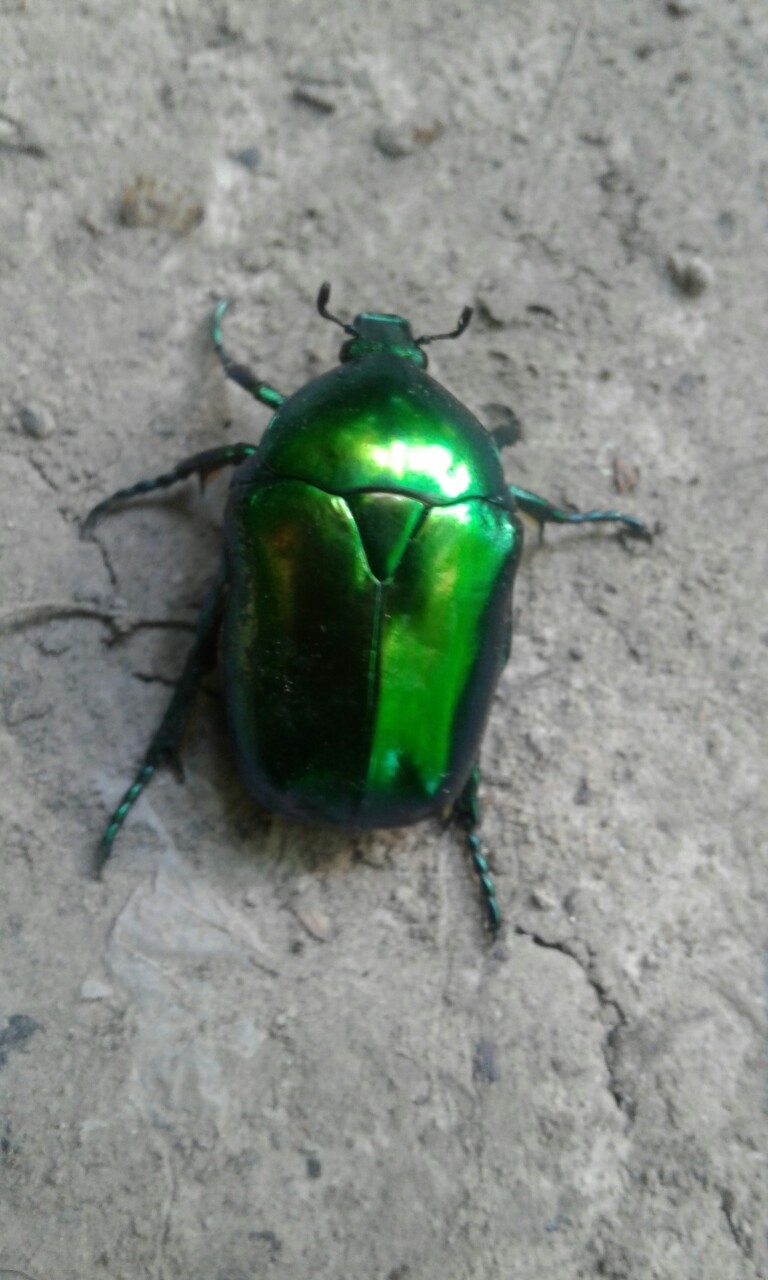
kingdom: Animalia
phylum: Arthropoda
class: Insecta
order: Coleoptera
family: Scarabaeidae
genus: Protaetia
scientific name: Protaetia speciosissima
